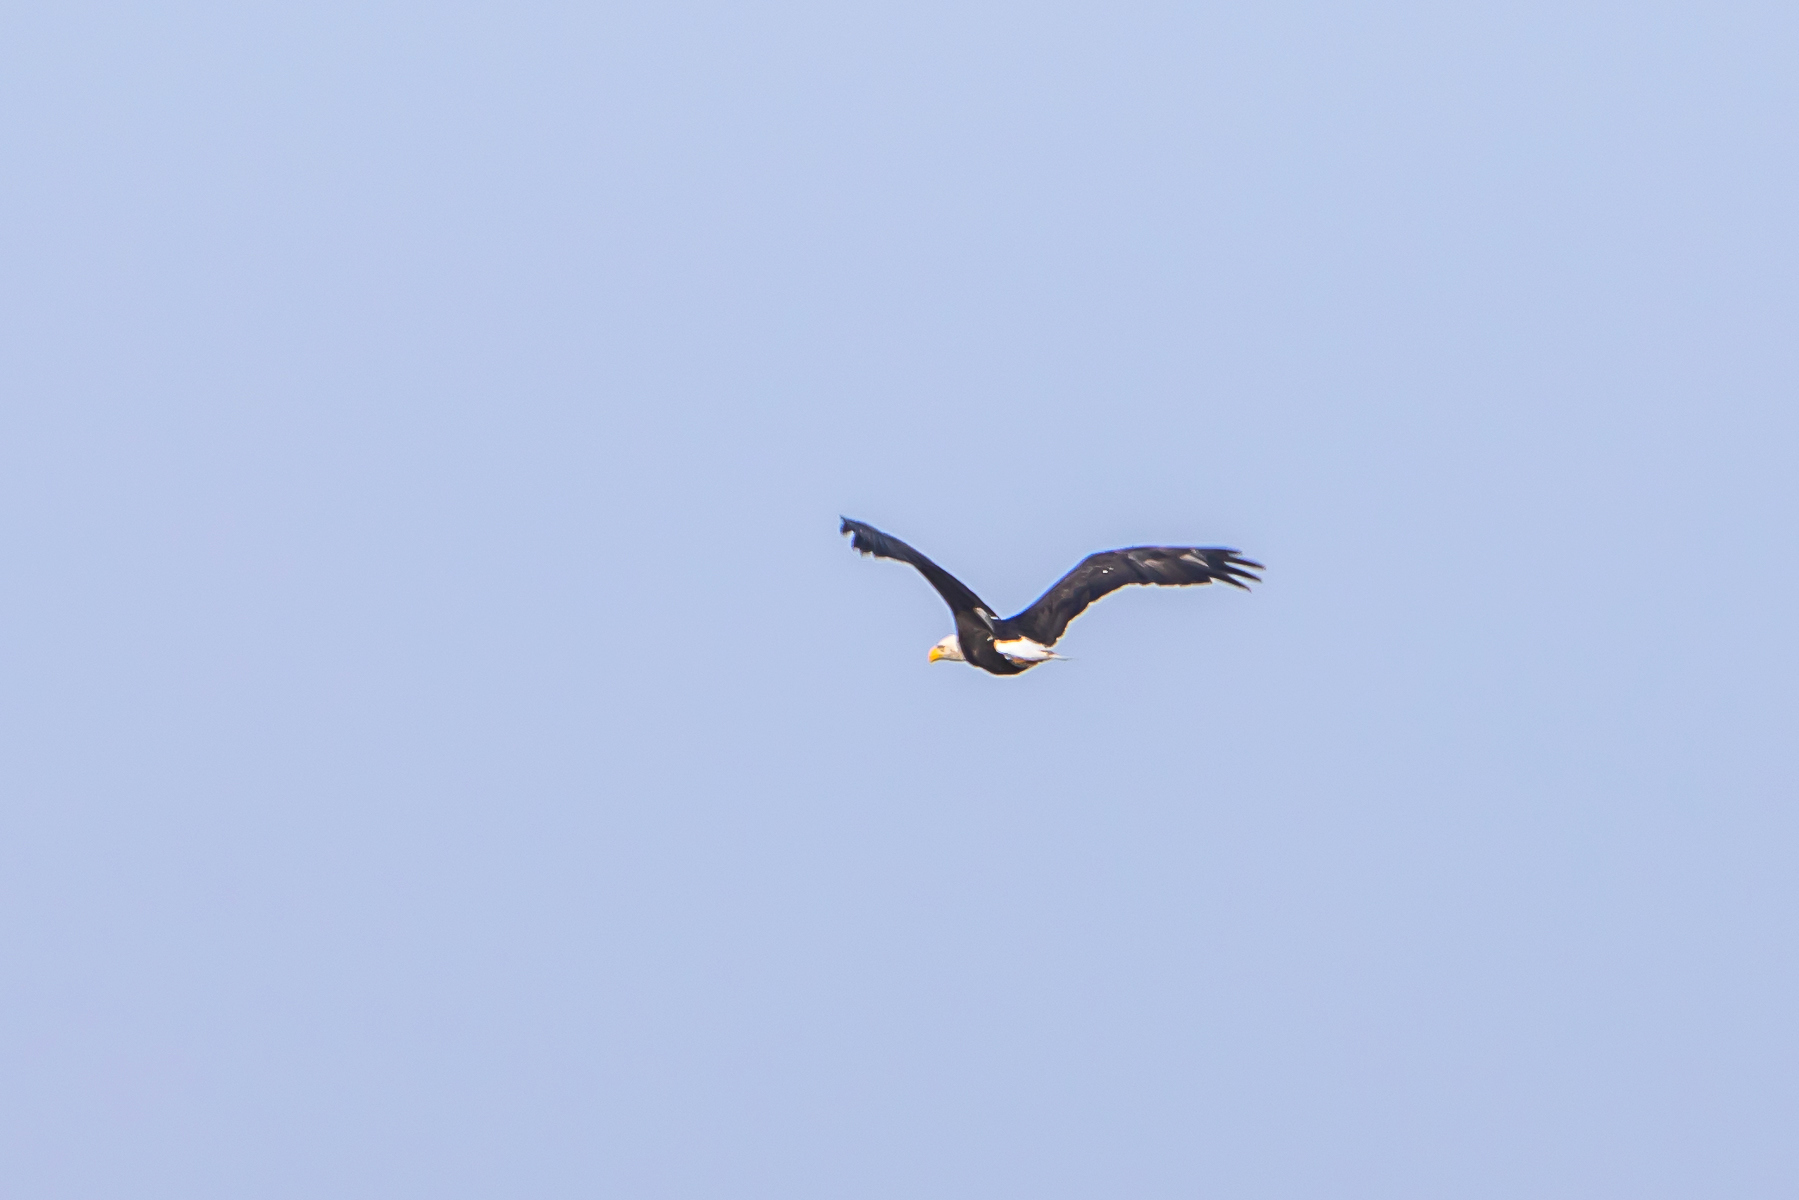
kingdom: Animalia
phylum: Chordata
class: Aves
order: Accipitriformes
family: Accipitridae
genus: Haliaeetus
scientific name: Haliaeetus leucocephalus
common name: Bald eagle
